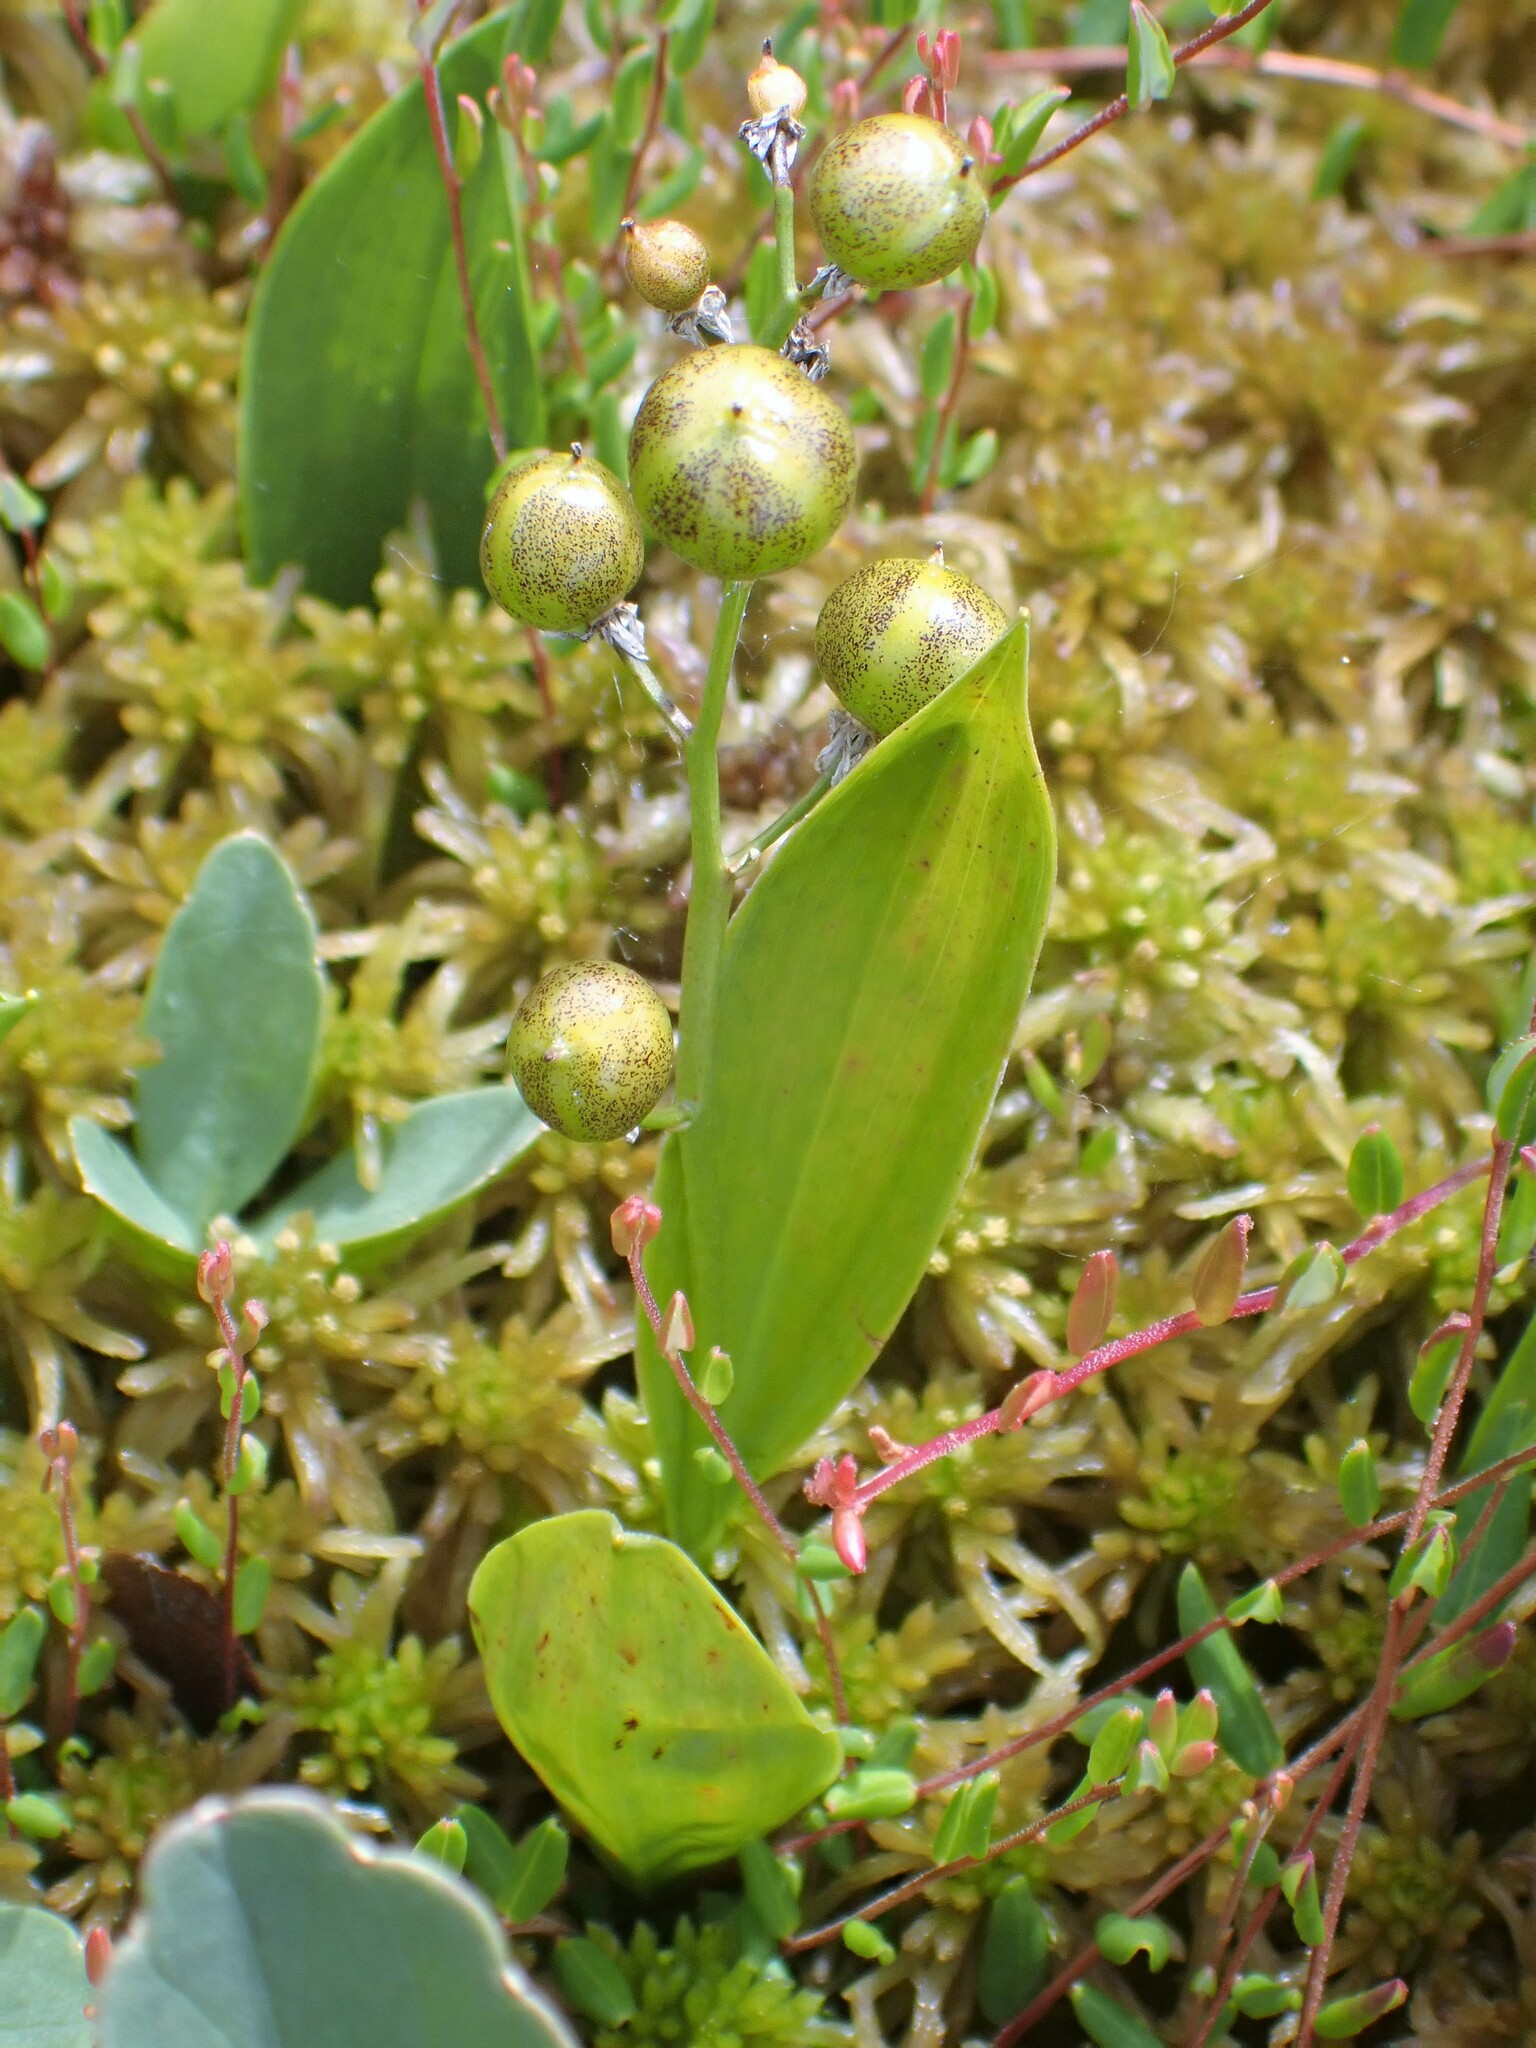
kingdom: Plantae
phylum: Tracheophyta
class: Liliopsida
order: Asparagales
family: Asparagaceae
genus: Maianthemum
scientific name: Maianthemum trifolium
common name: Swamp false solomon's seal
